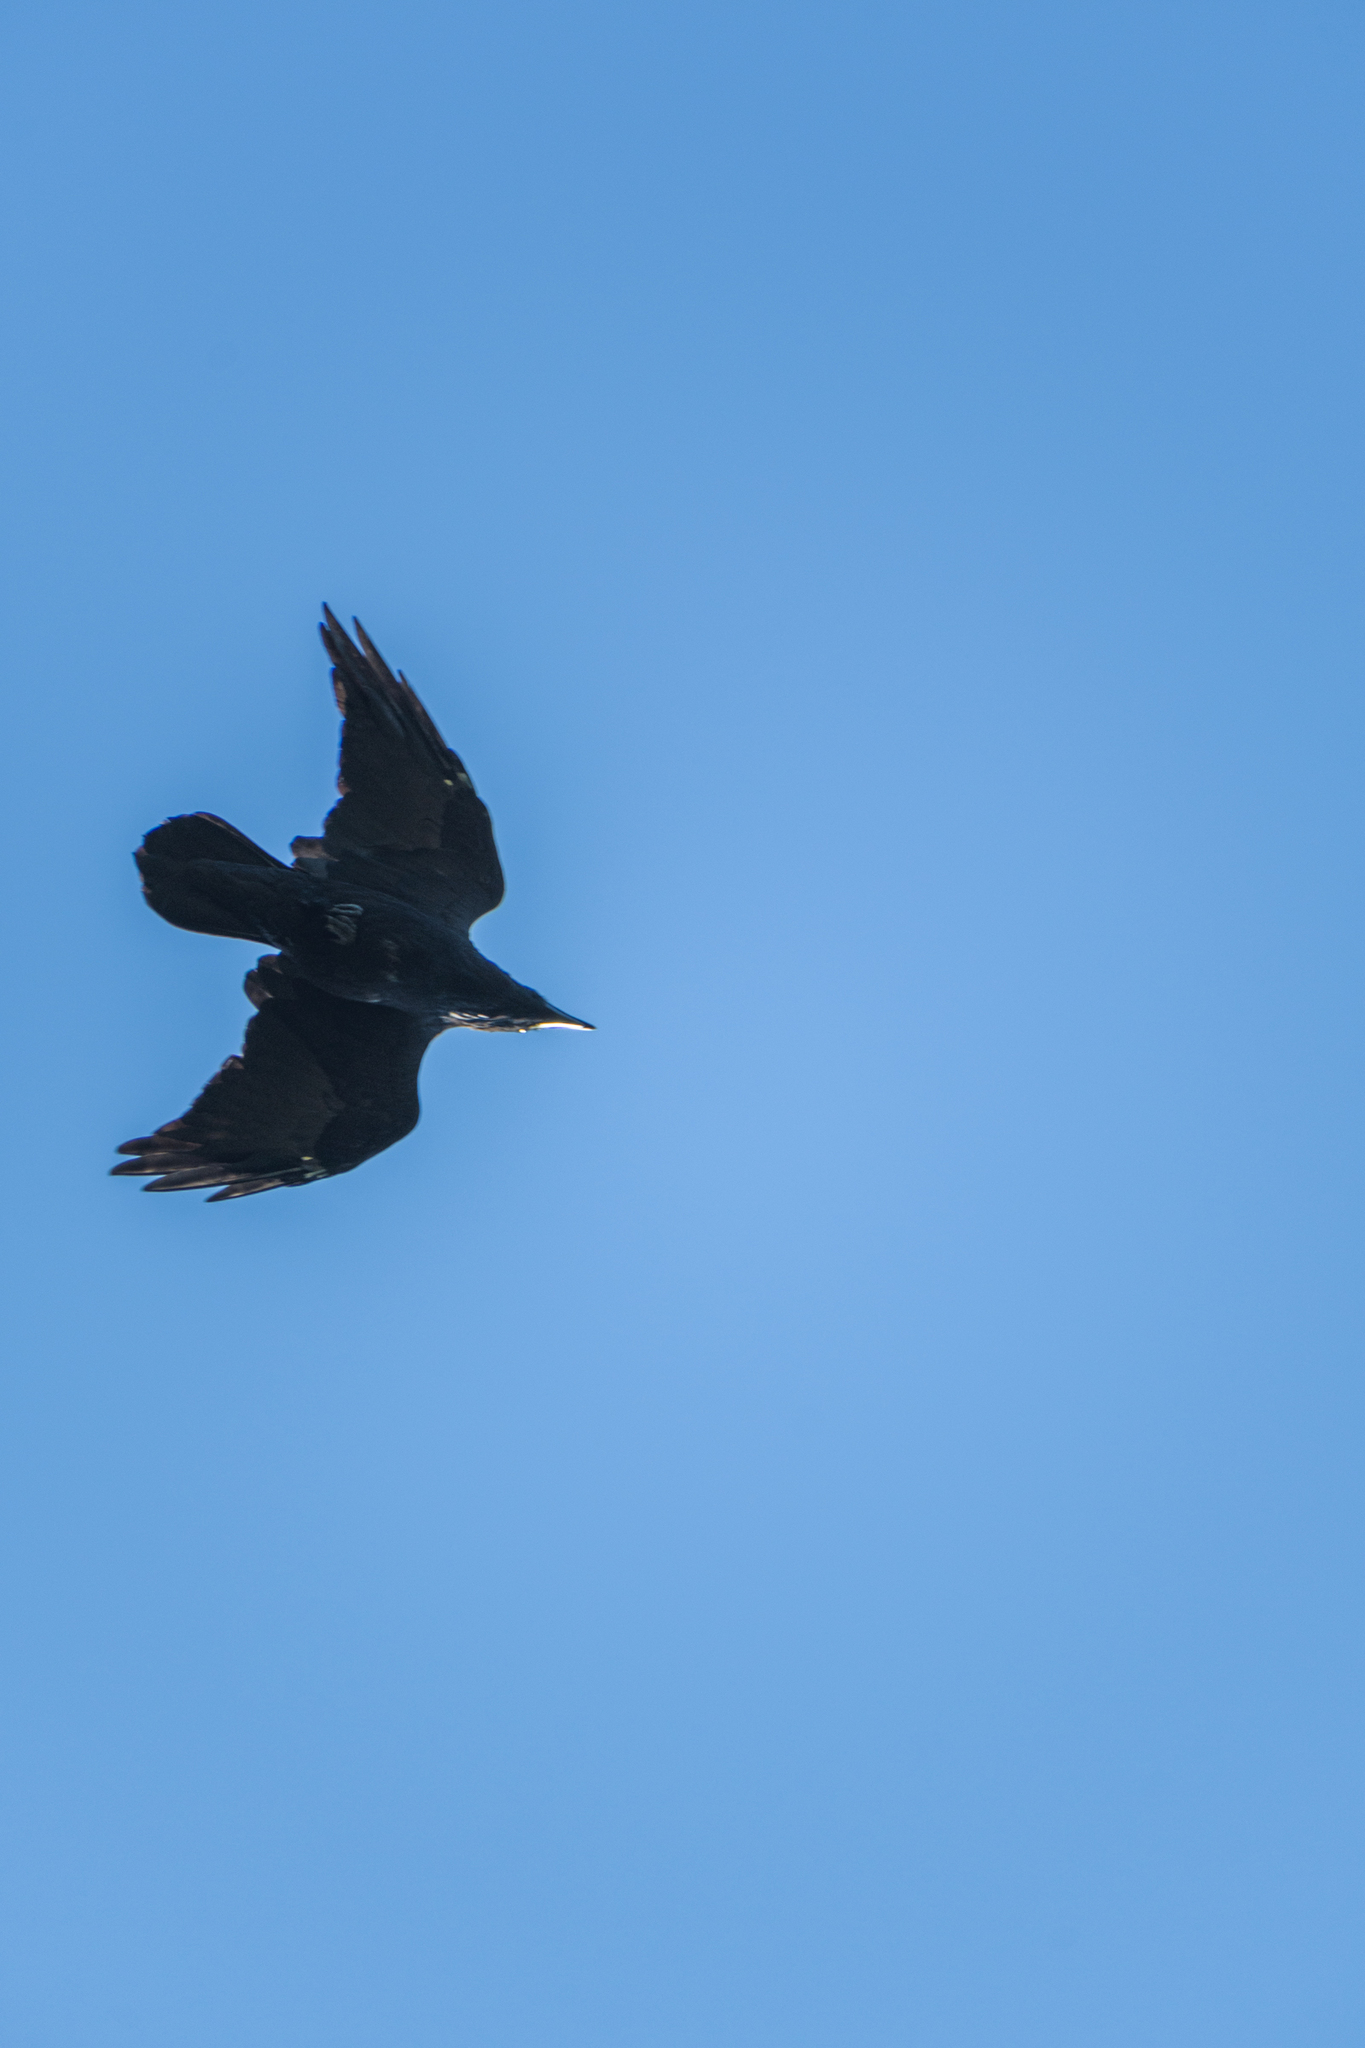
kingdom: Animalia
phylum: Chordata
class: Aves
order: Passeriformes
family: Corvidae
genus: Corvus
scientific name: Corvus corax
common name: Common raven
